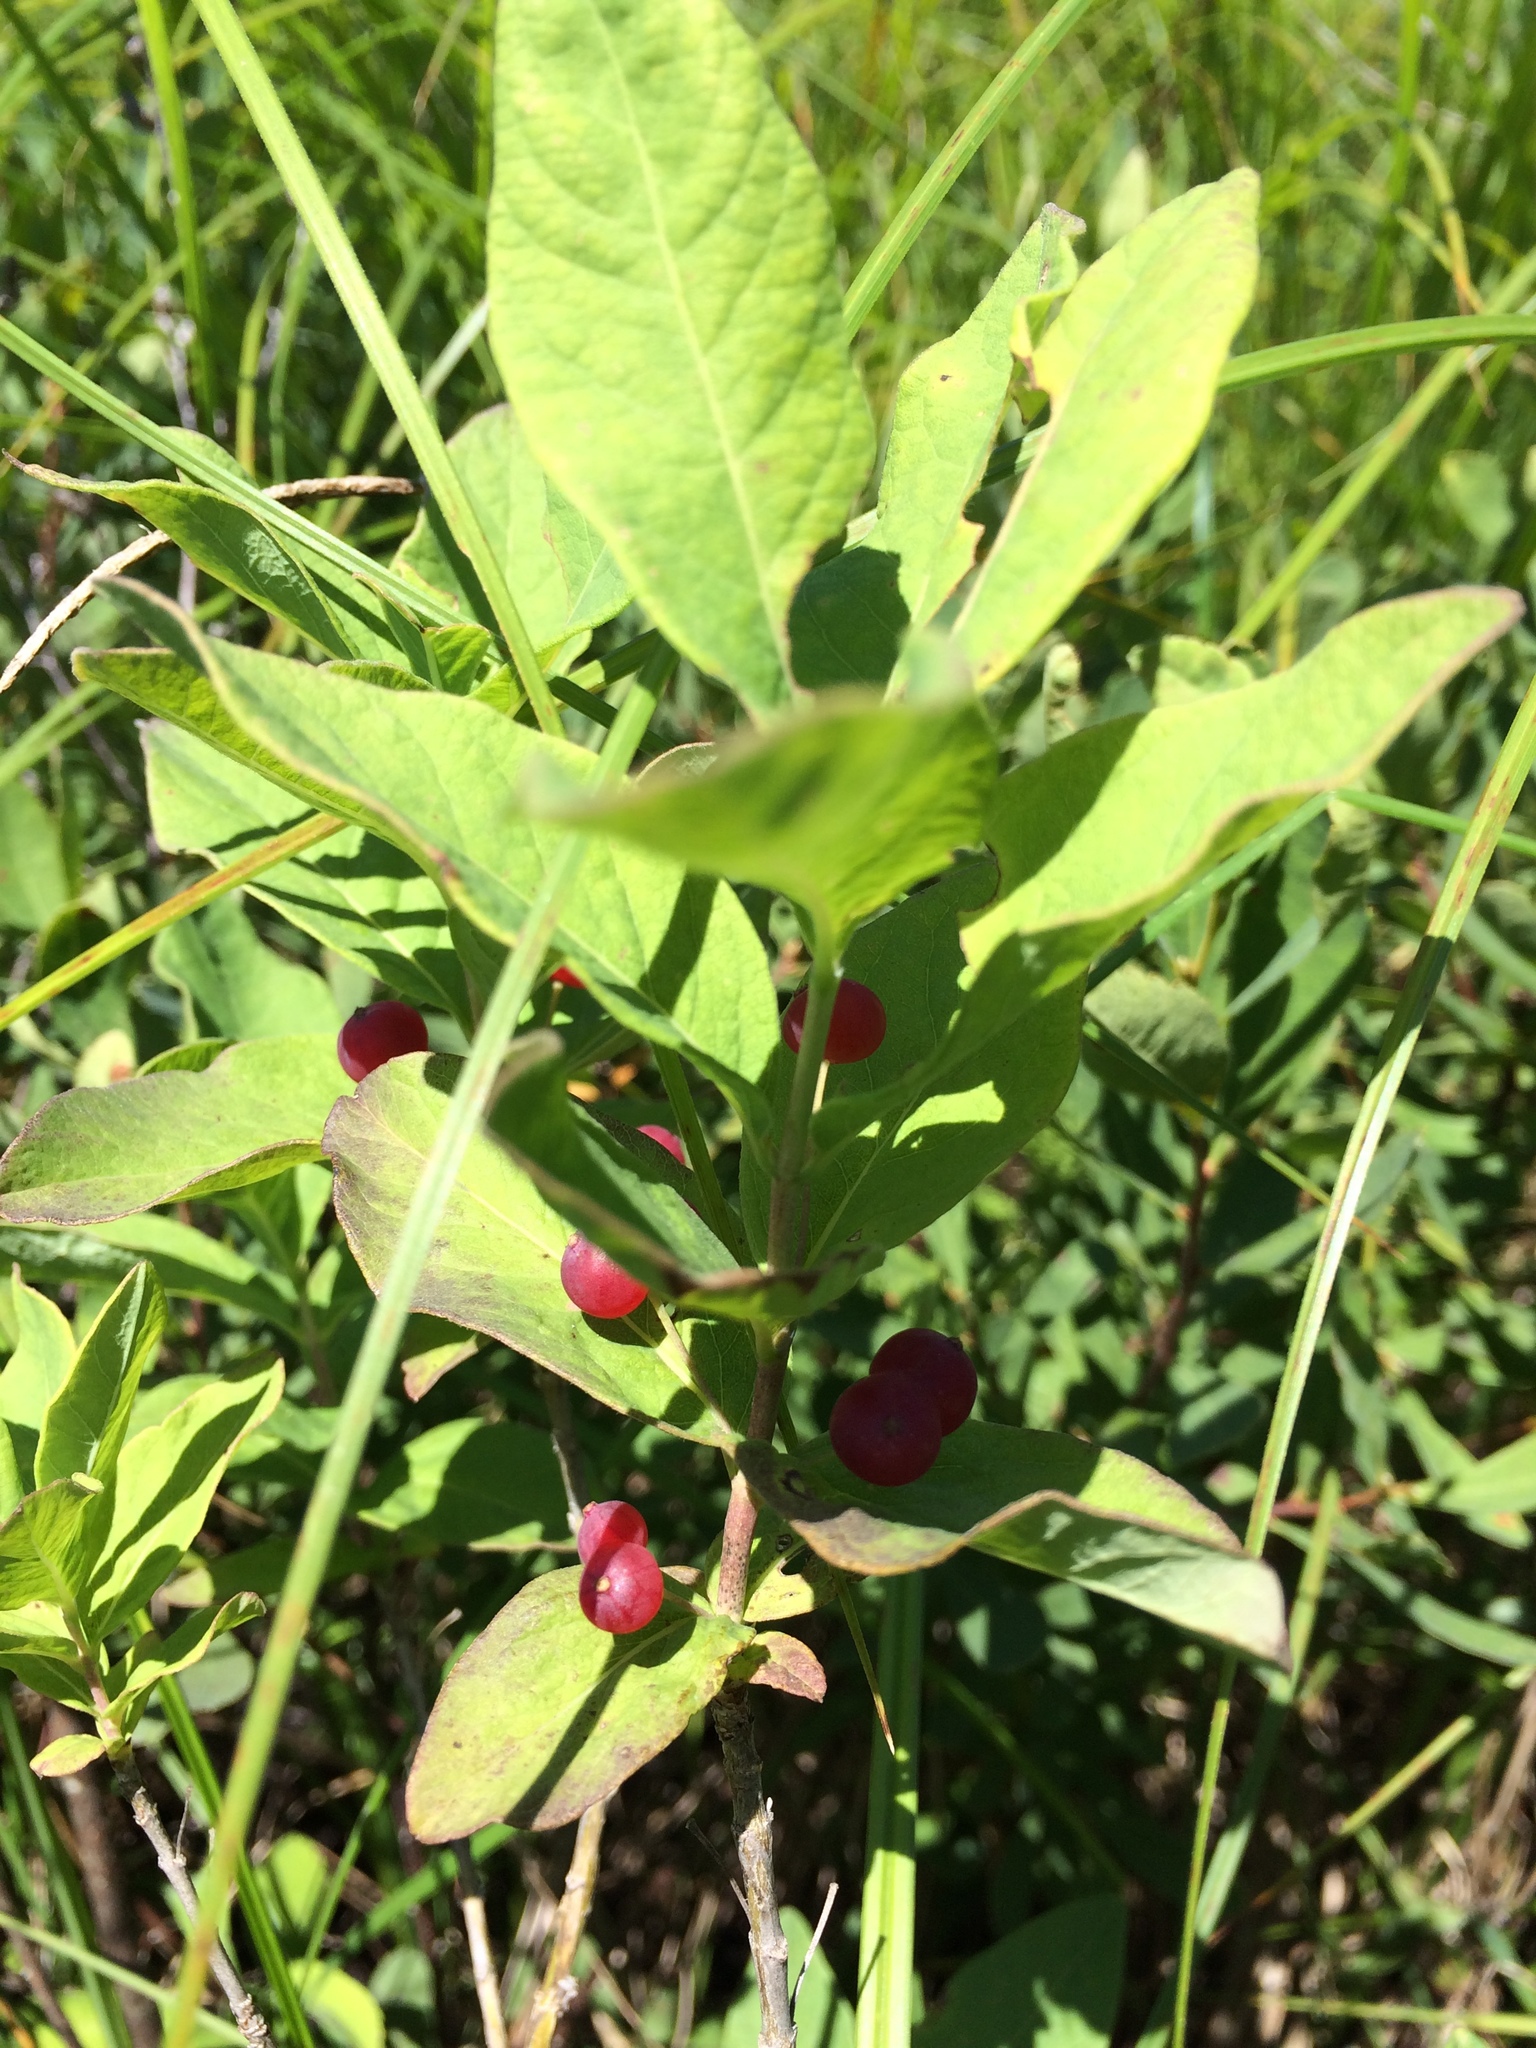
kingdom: Plantae
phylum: Tracheophyta
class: Magnoliopsida
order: Dipsacales
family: Caprifoliaceae
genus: Lonicera
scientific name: Lonicera oblongifolia
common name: Swamp fly honeysuckle
